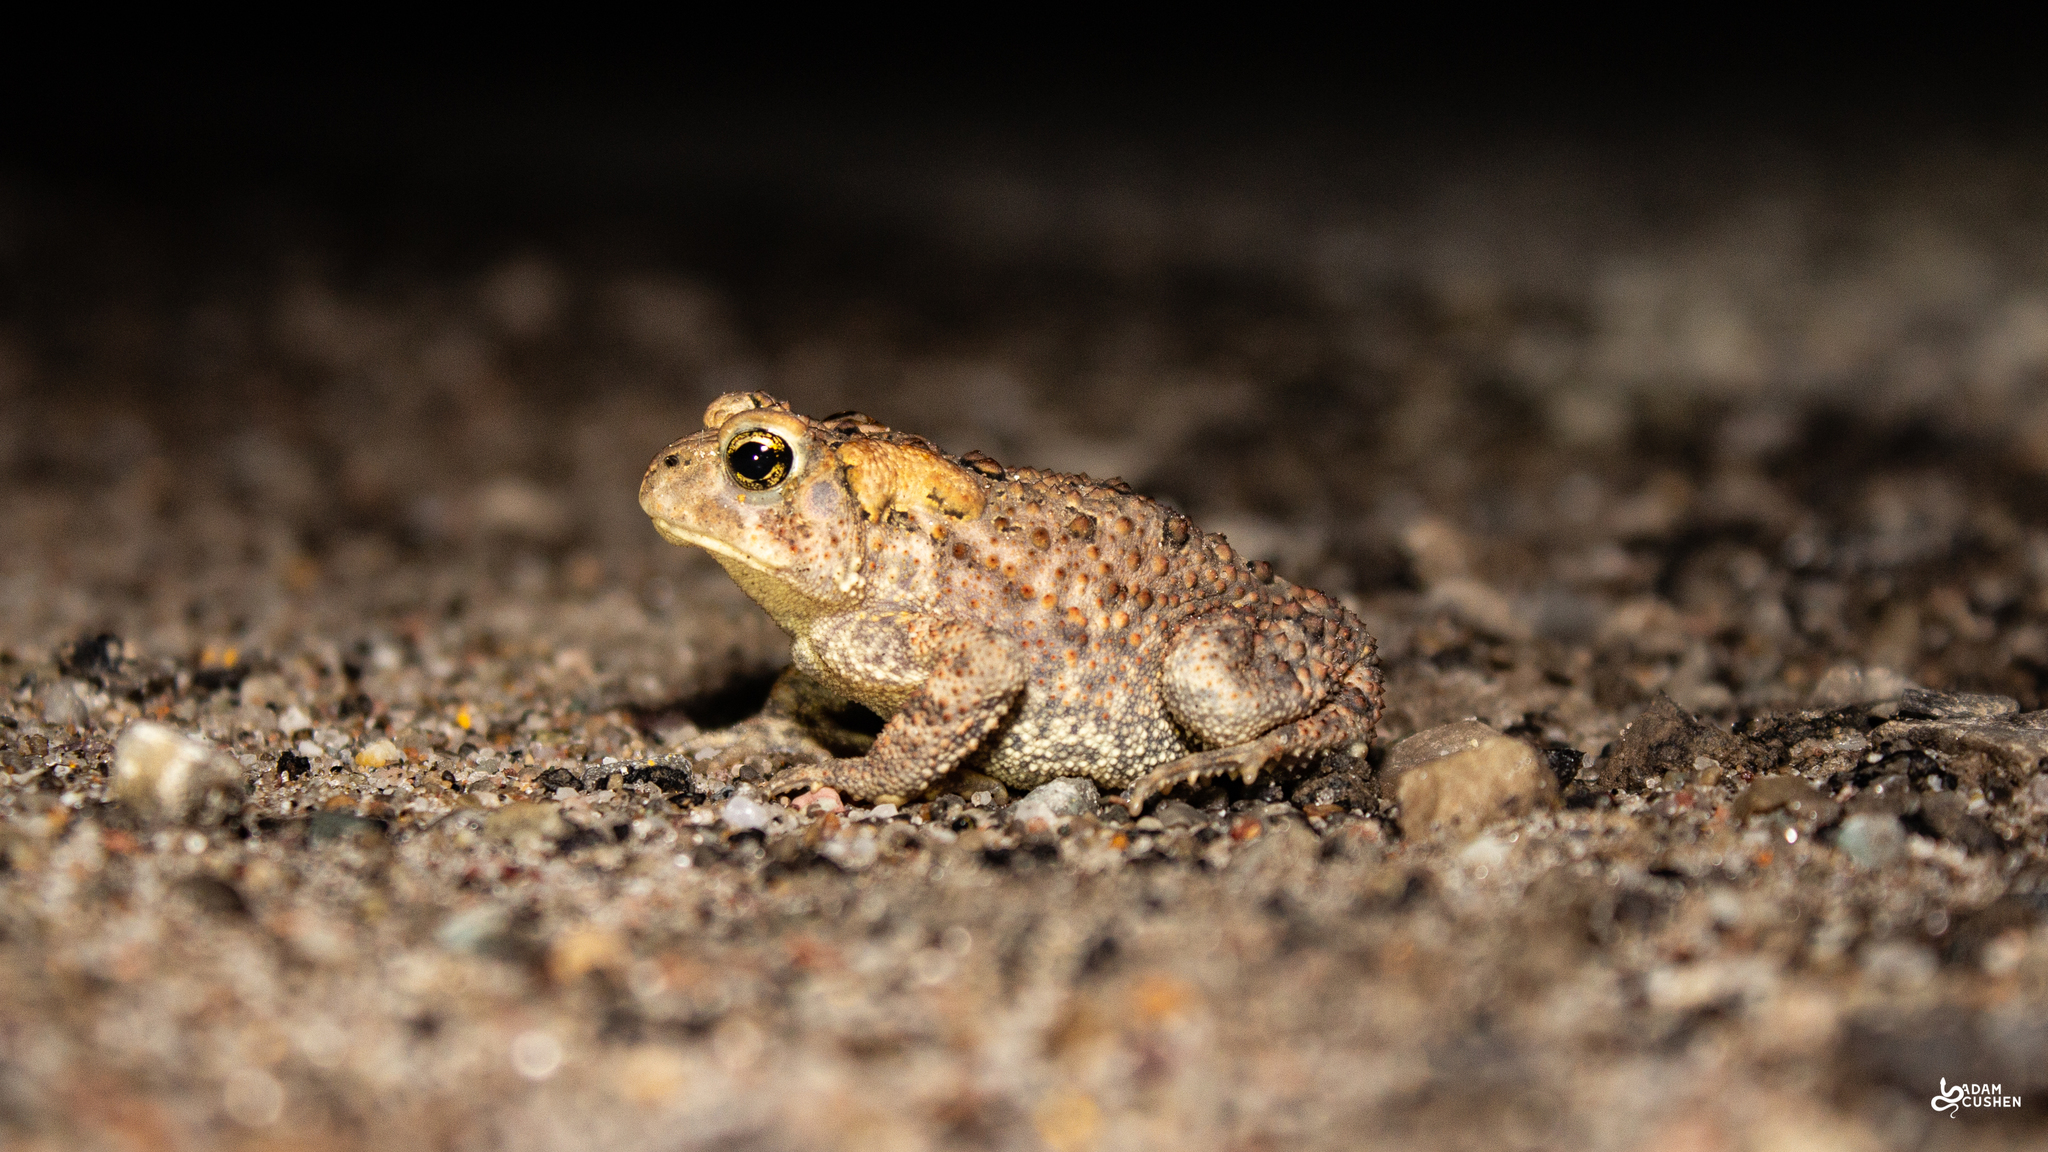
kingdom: Animalia
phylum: Chordata
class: Amphibia
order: Anura
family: Bufonidae
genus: Anaxyrus
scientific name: Anaxyrus americanus
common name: American toad
